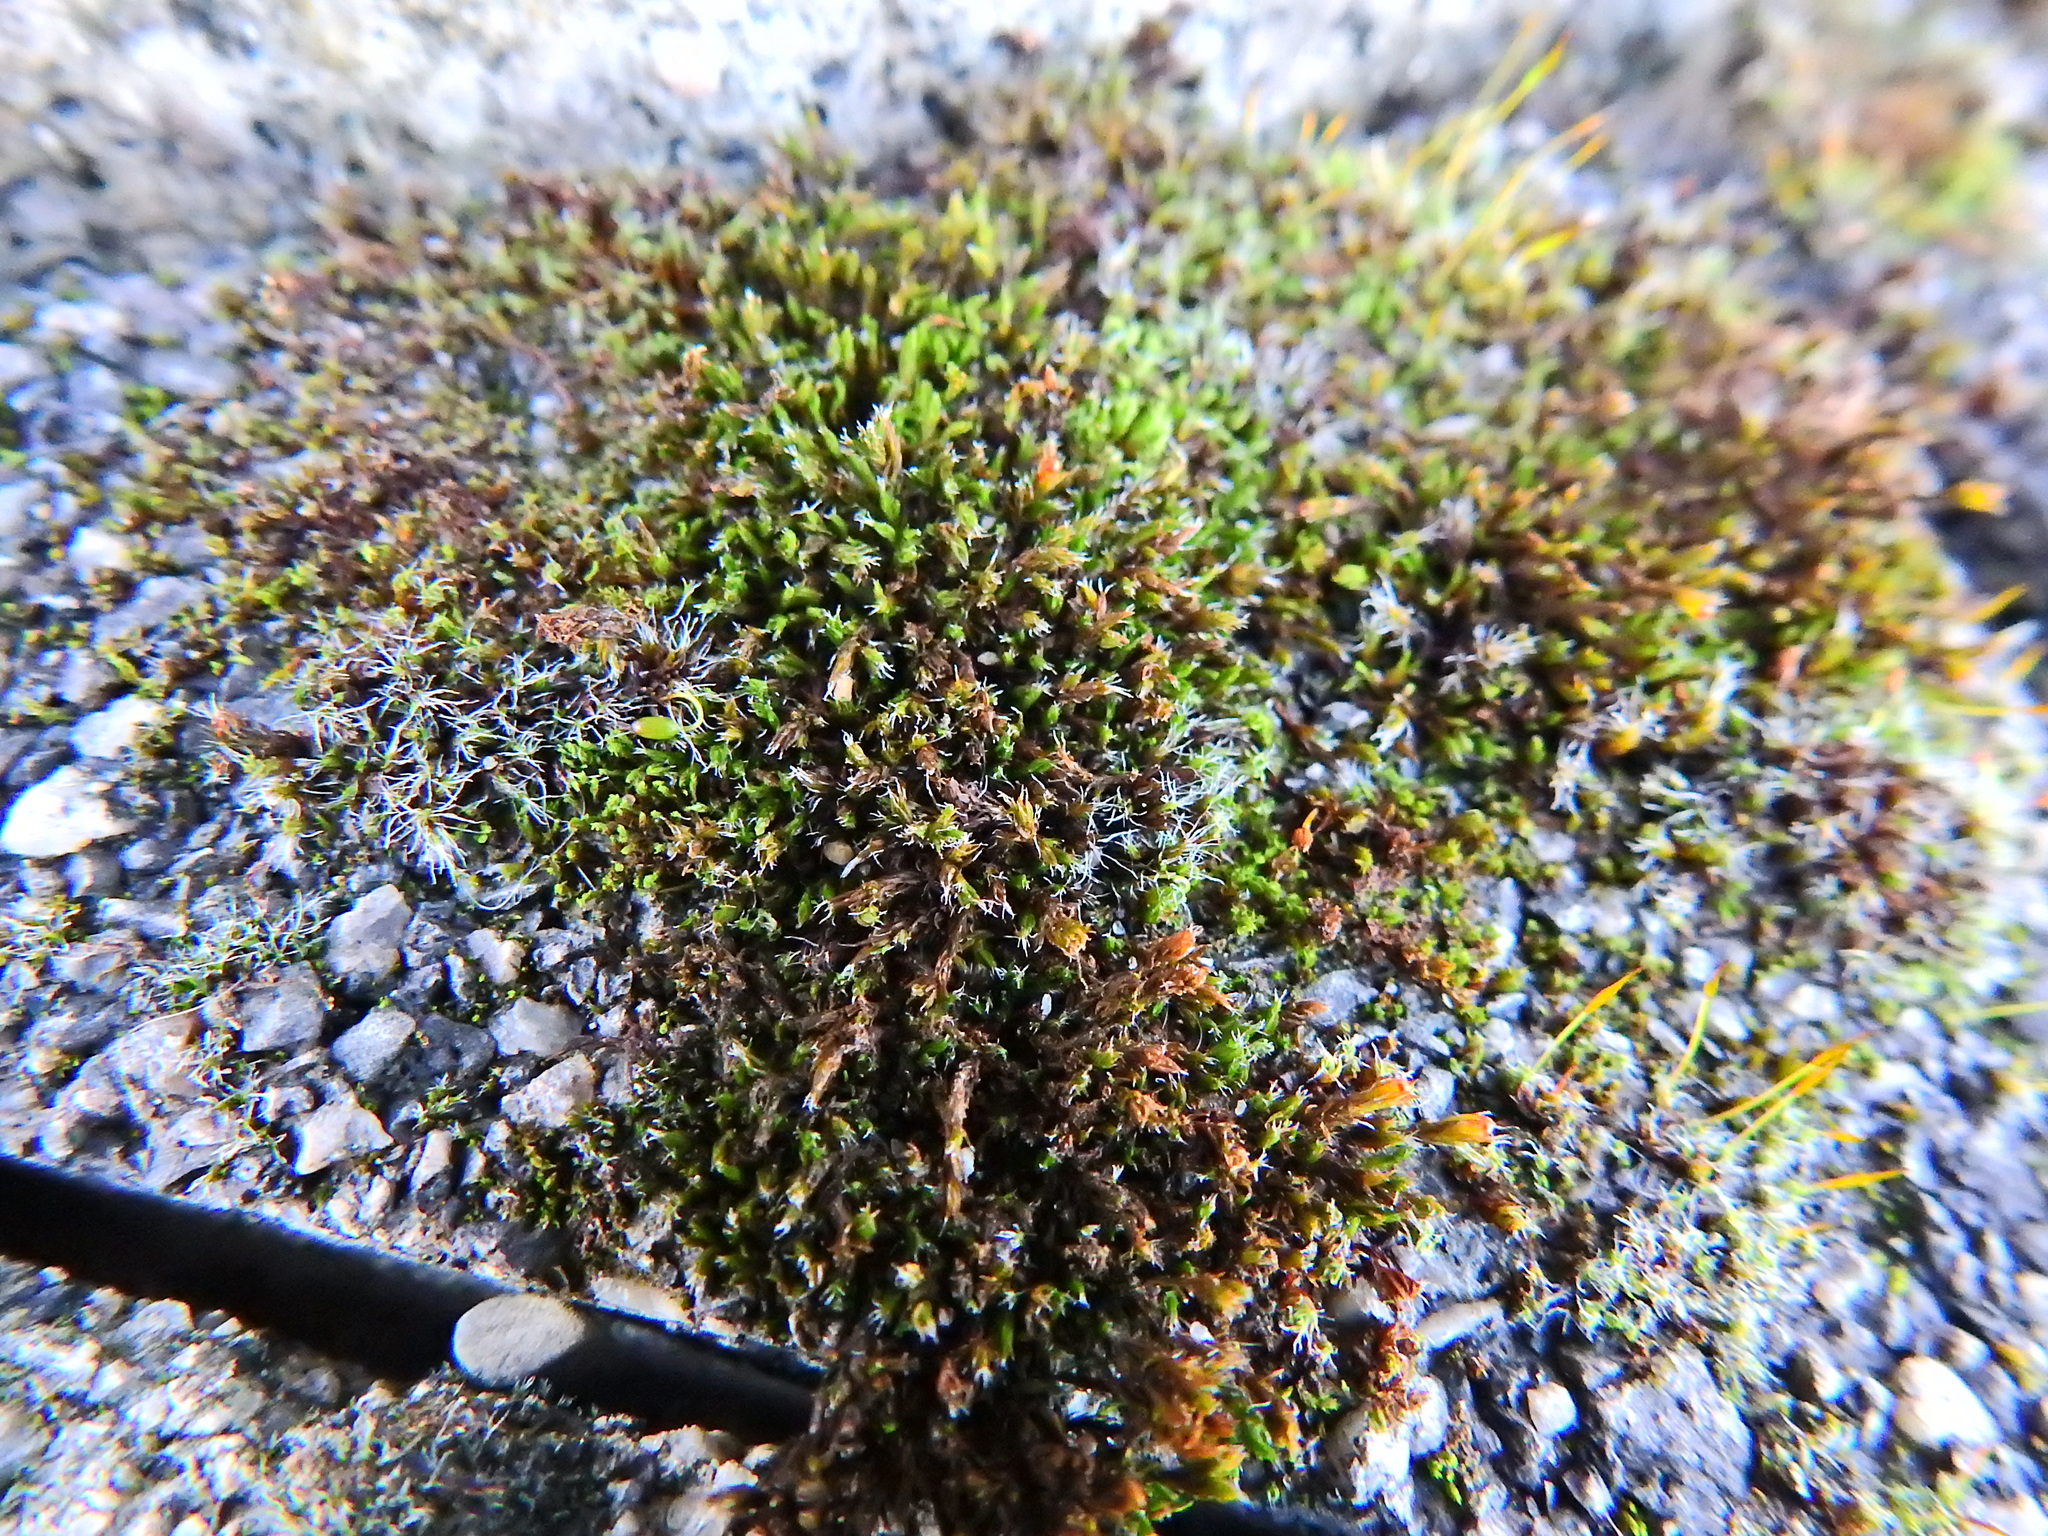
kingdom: Plantae
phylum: Bryophyta
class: Bryopsida
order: Grimmiales
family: Grimmiaceae
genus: Schistidium
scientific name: Schistidium crassipilum
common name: Thickpoint bloom moss
